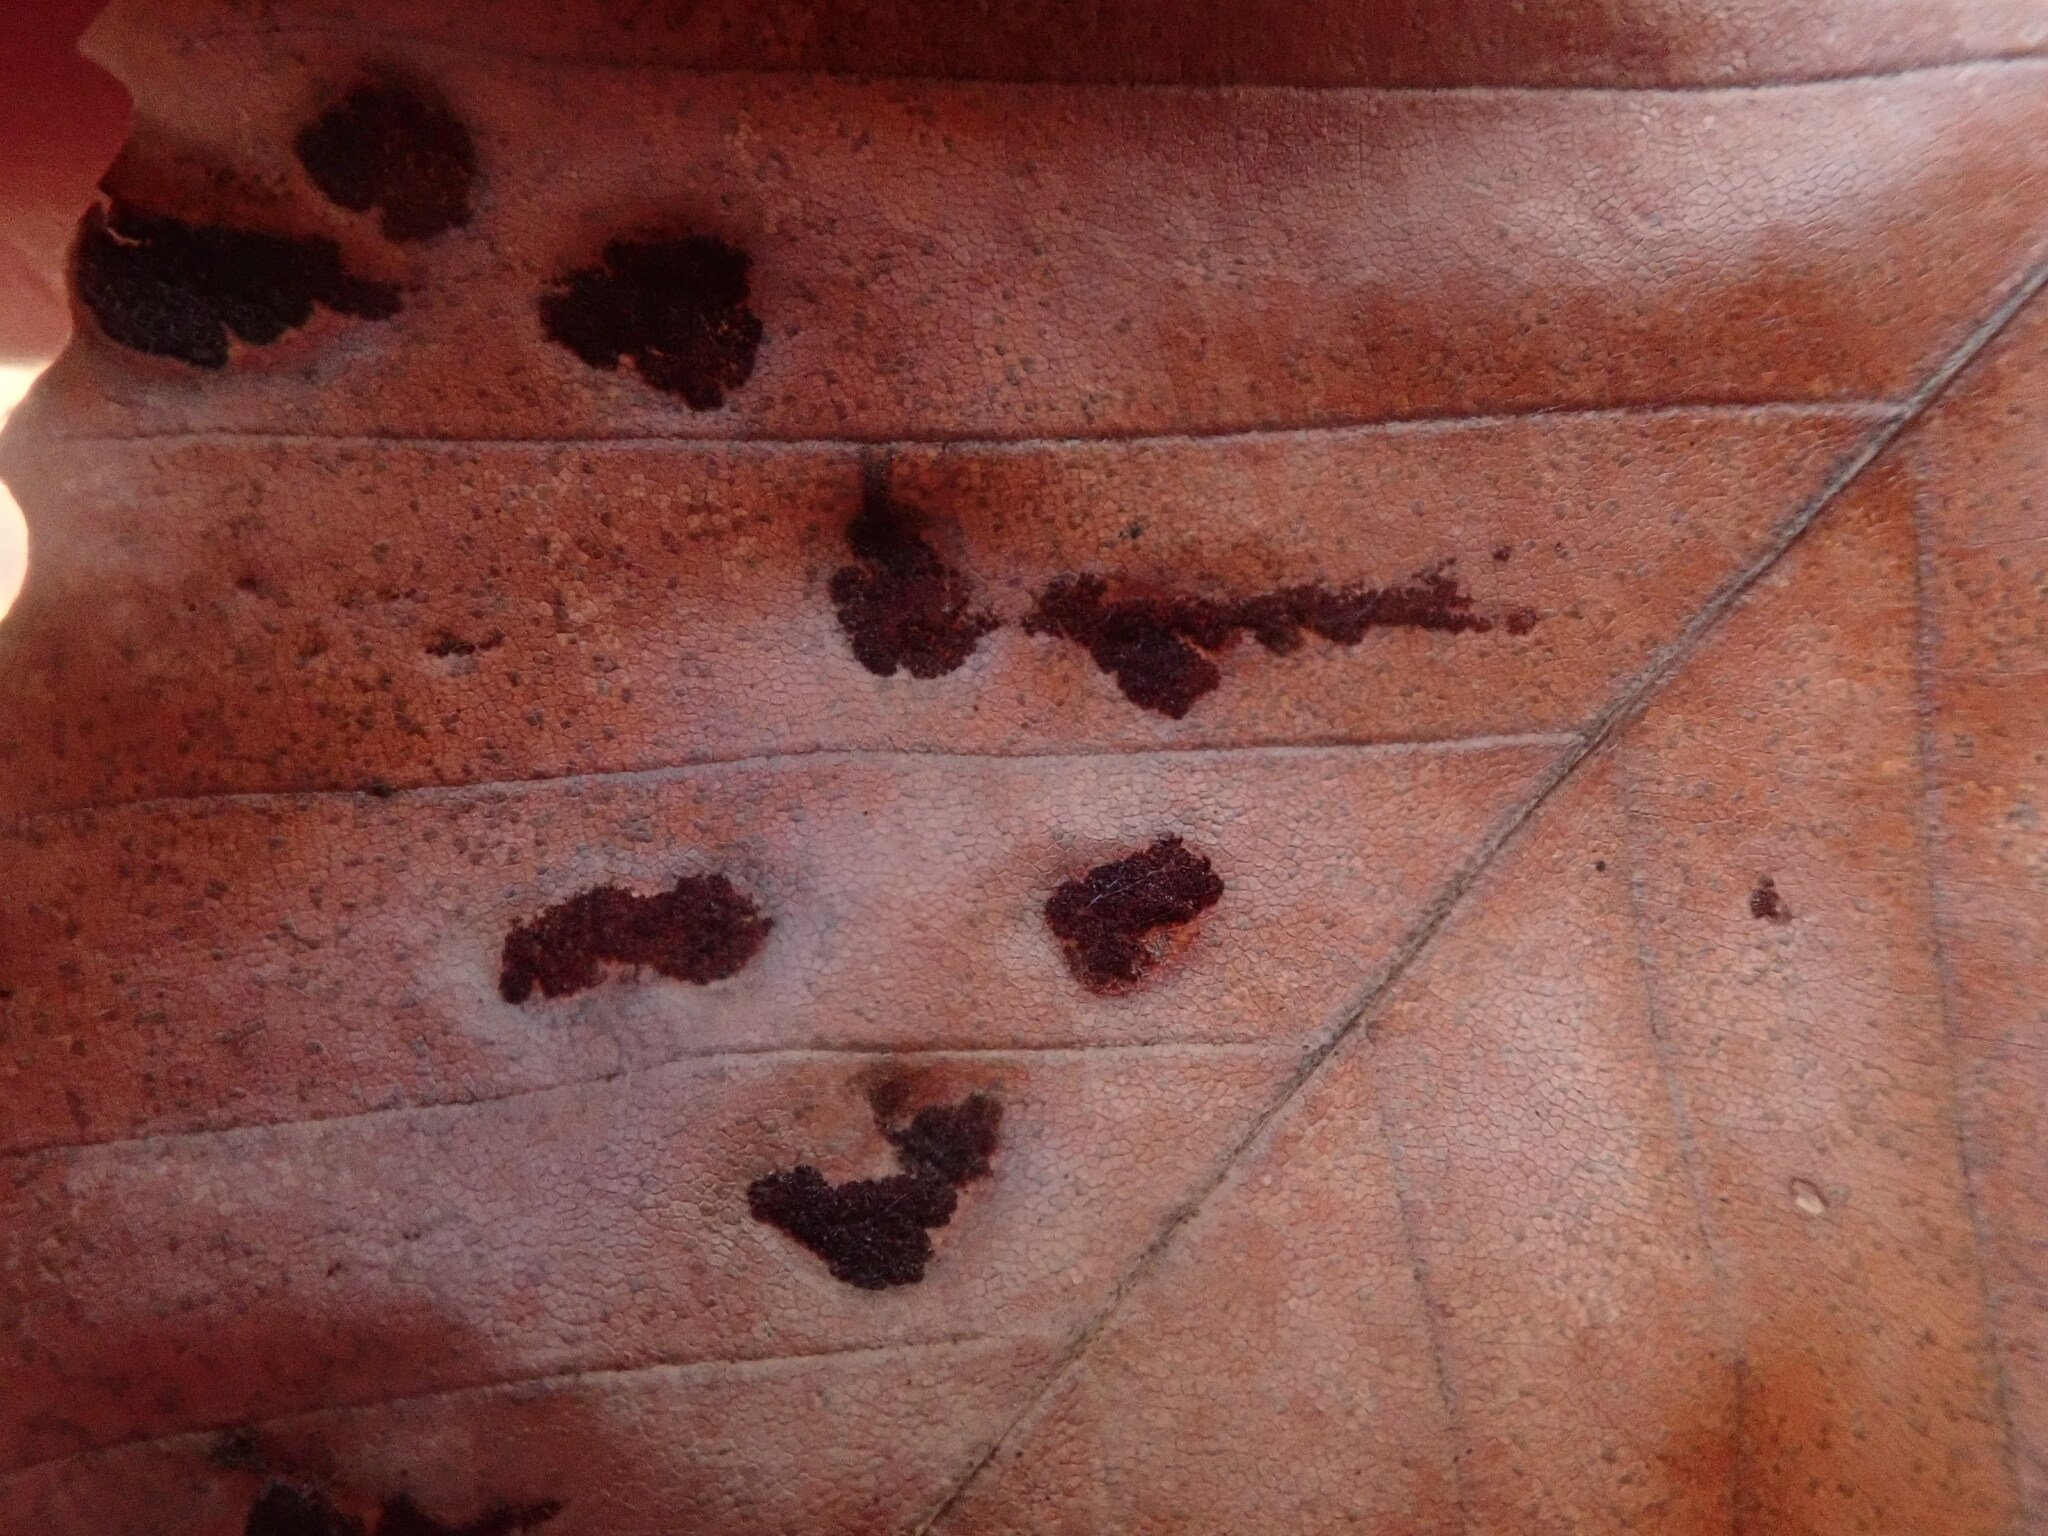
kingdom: Animalia
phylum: Arthropoda
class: Arachnida
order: Trombidiformes
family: Eriophyidae
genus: Acalitus
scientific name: Acalitus
